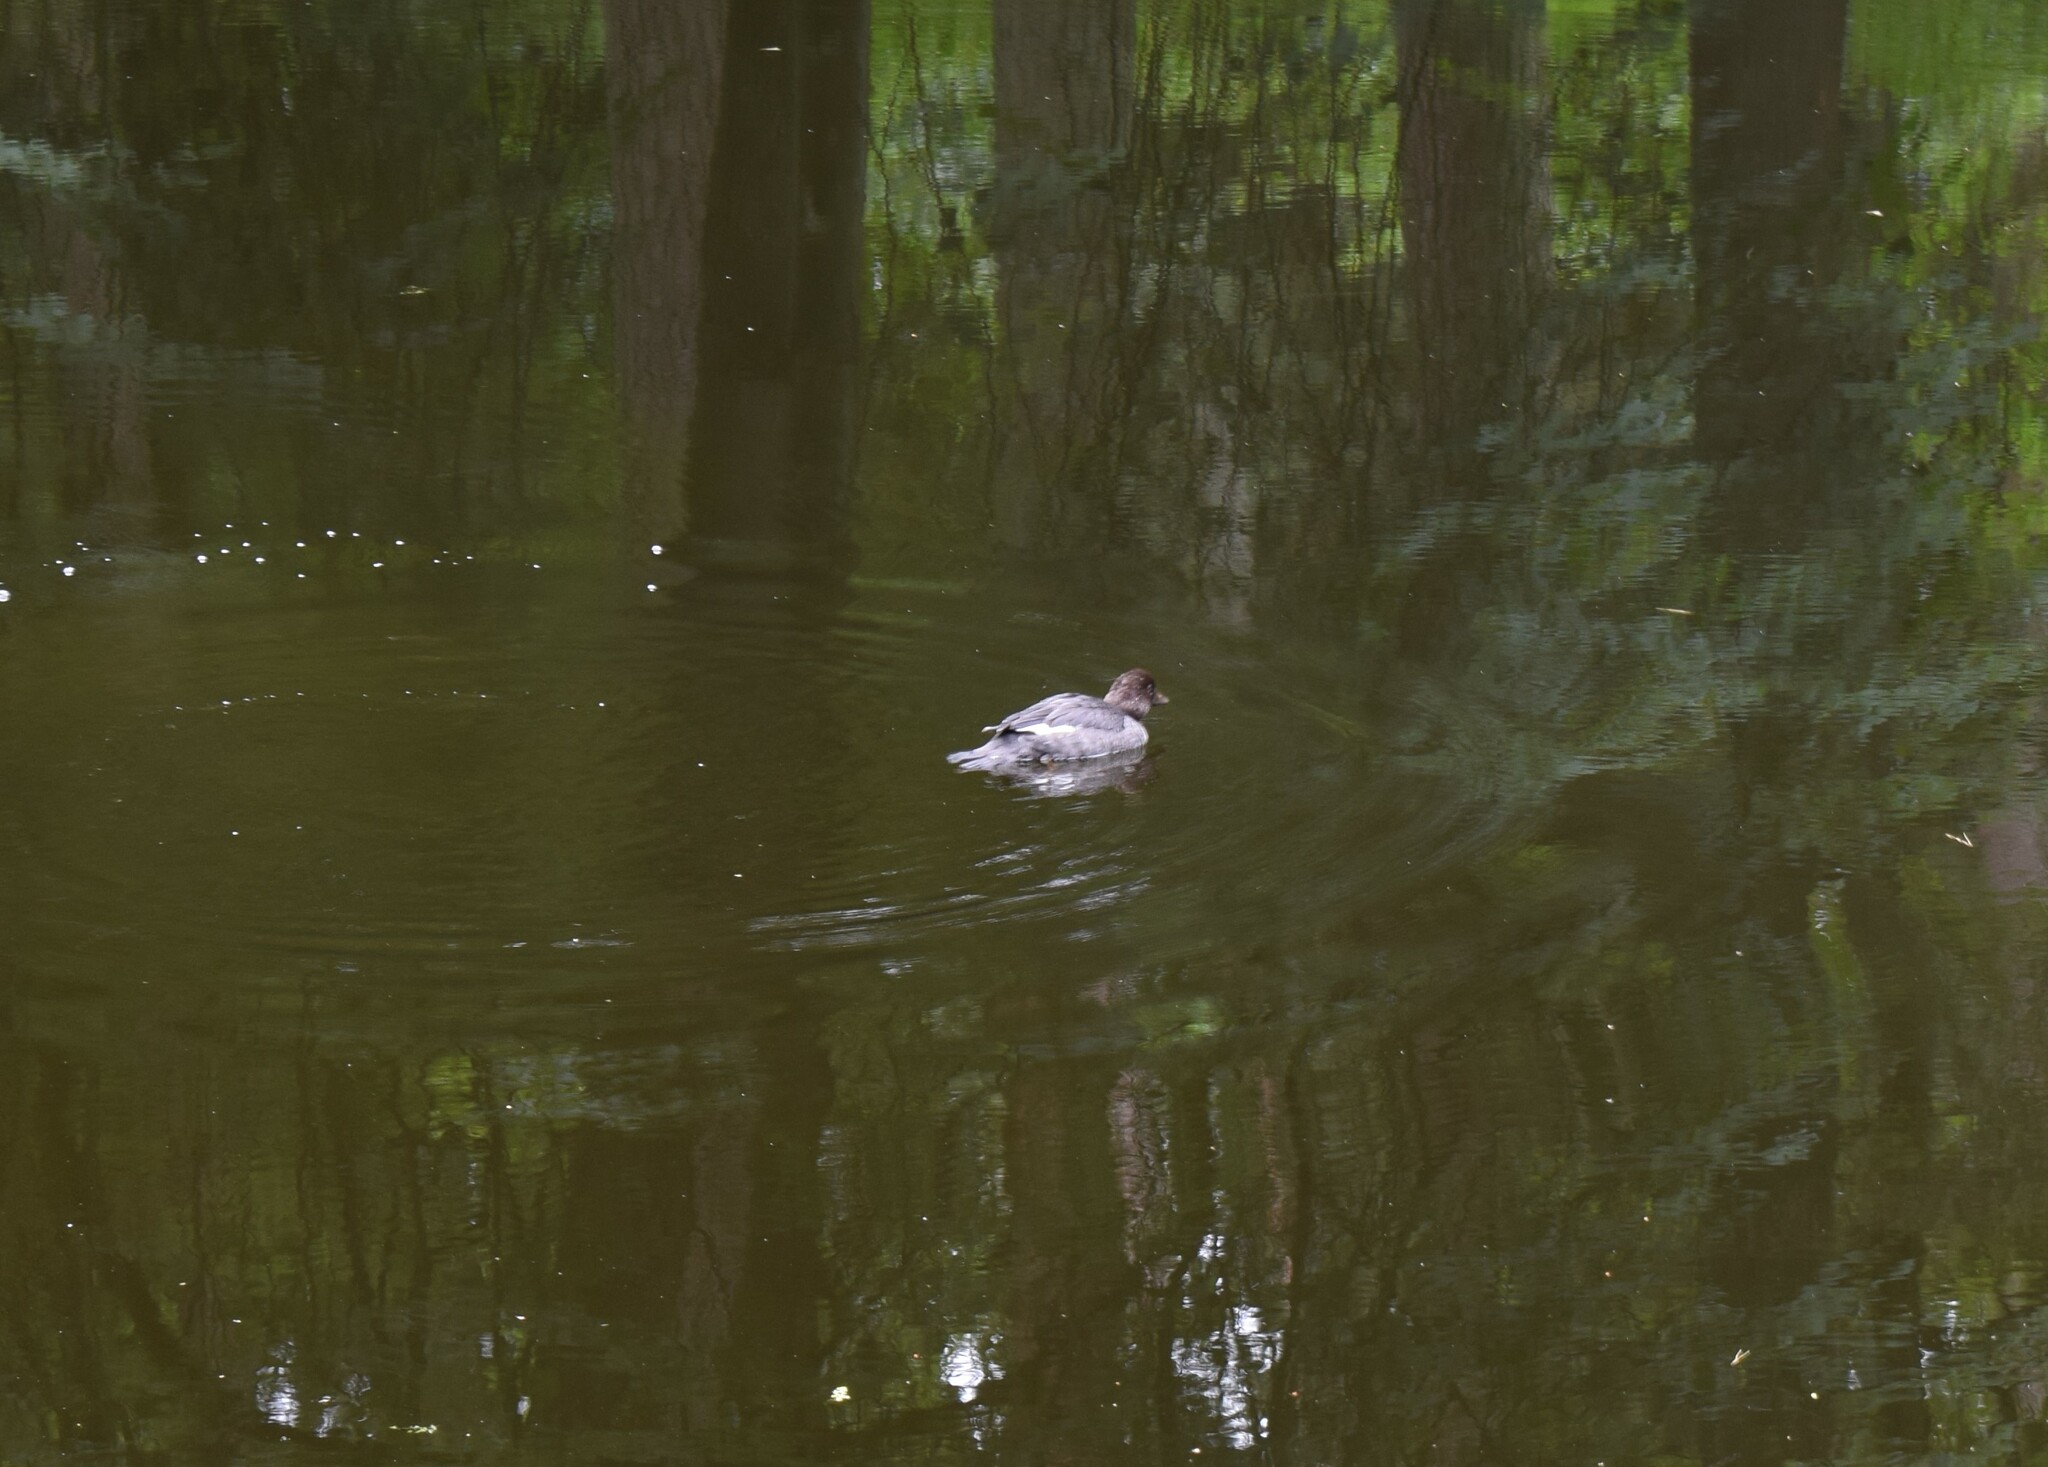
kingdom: Animalia
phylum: Chordata
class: Aves
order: Anseriformes
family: Anatidae
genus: Bucephala
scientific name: Bucephala clangula
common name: Common goldeneye
